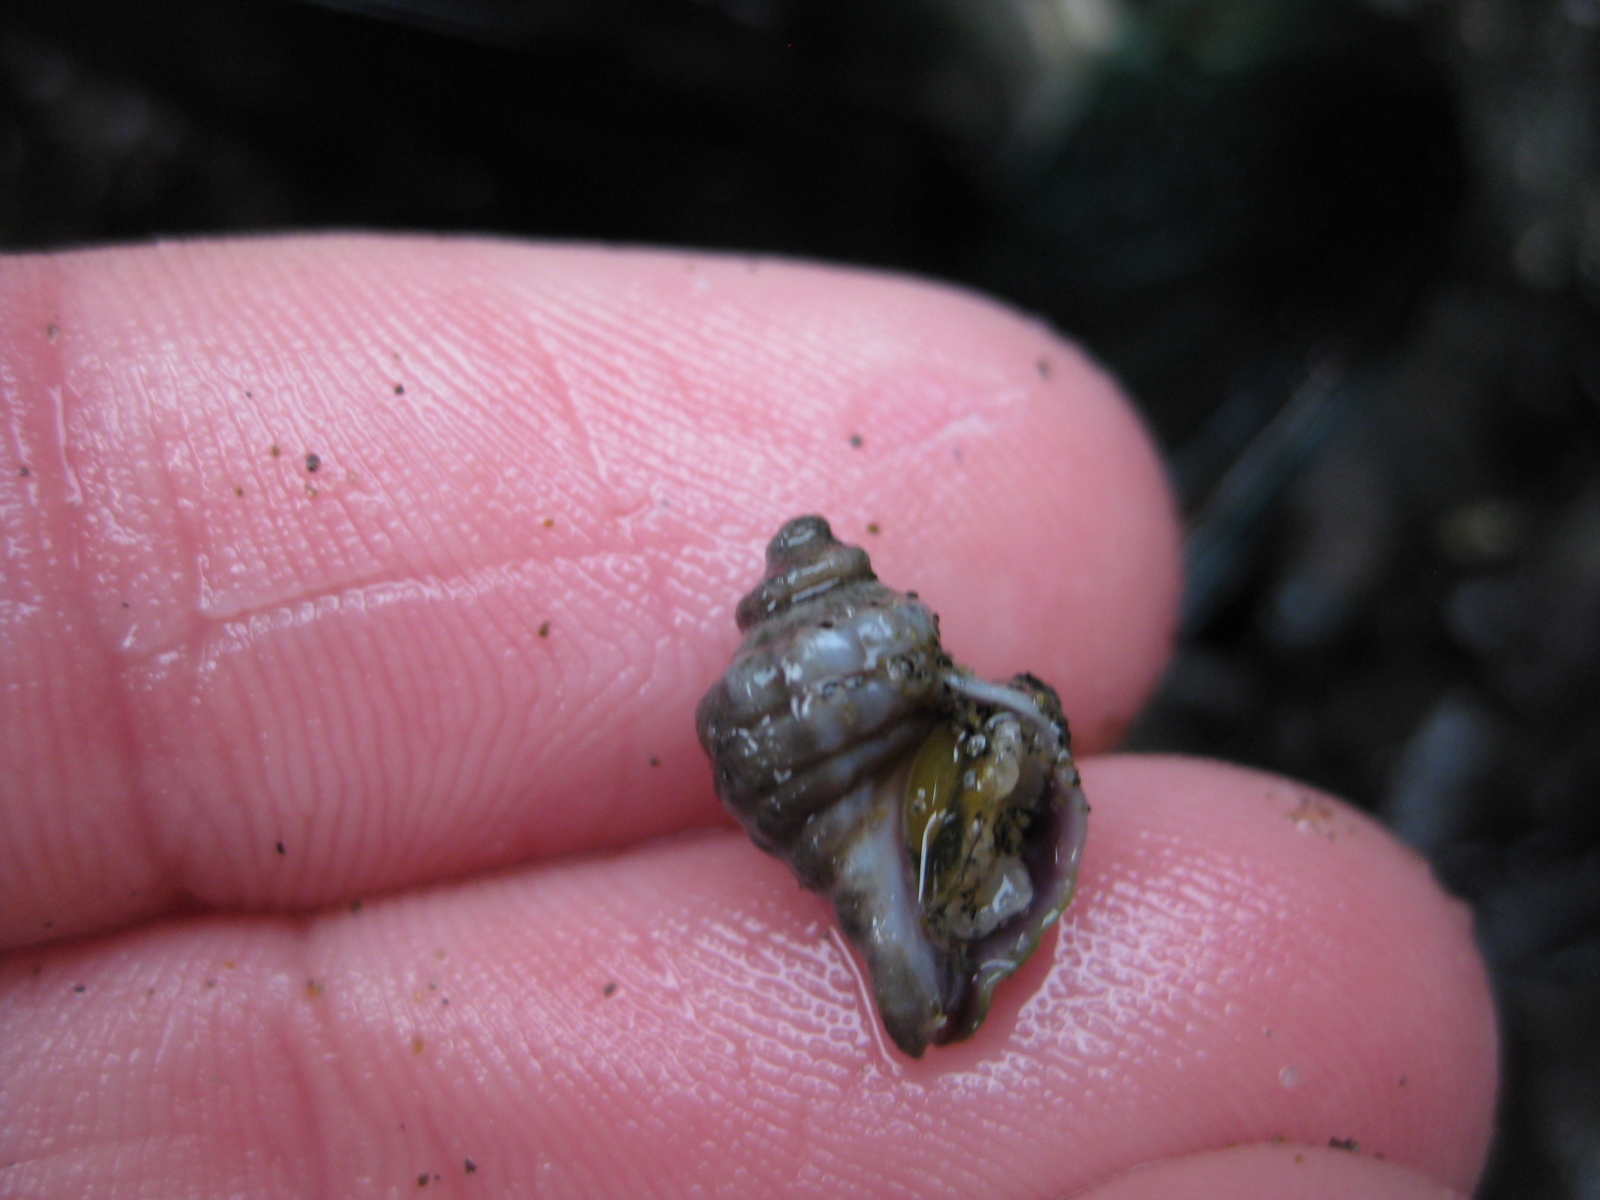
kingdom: Animalia
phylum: Mollusca
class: Gastropoda
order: Neogastropoda
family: Muricidae
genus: Paratrophon
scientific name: Paratrophon cheesemani
